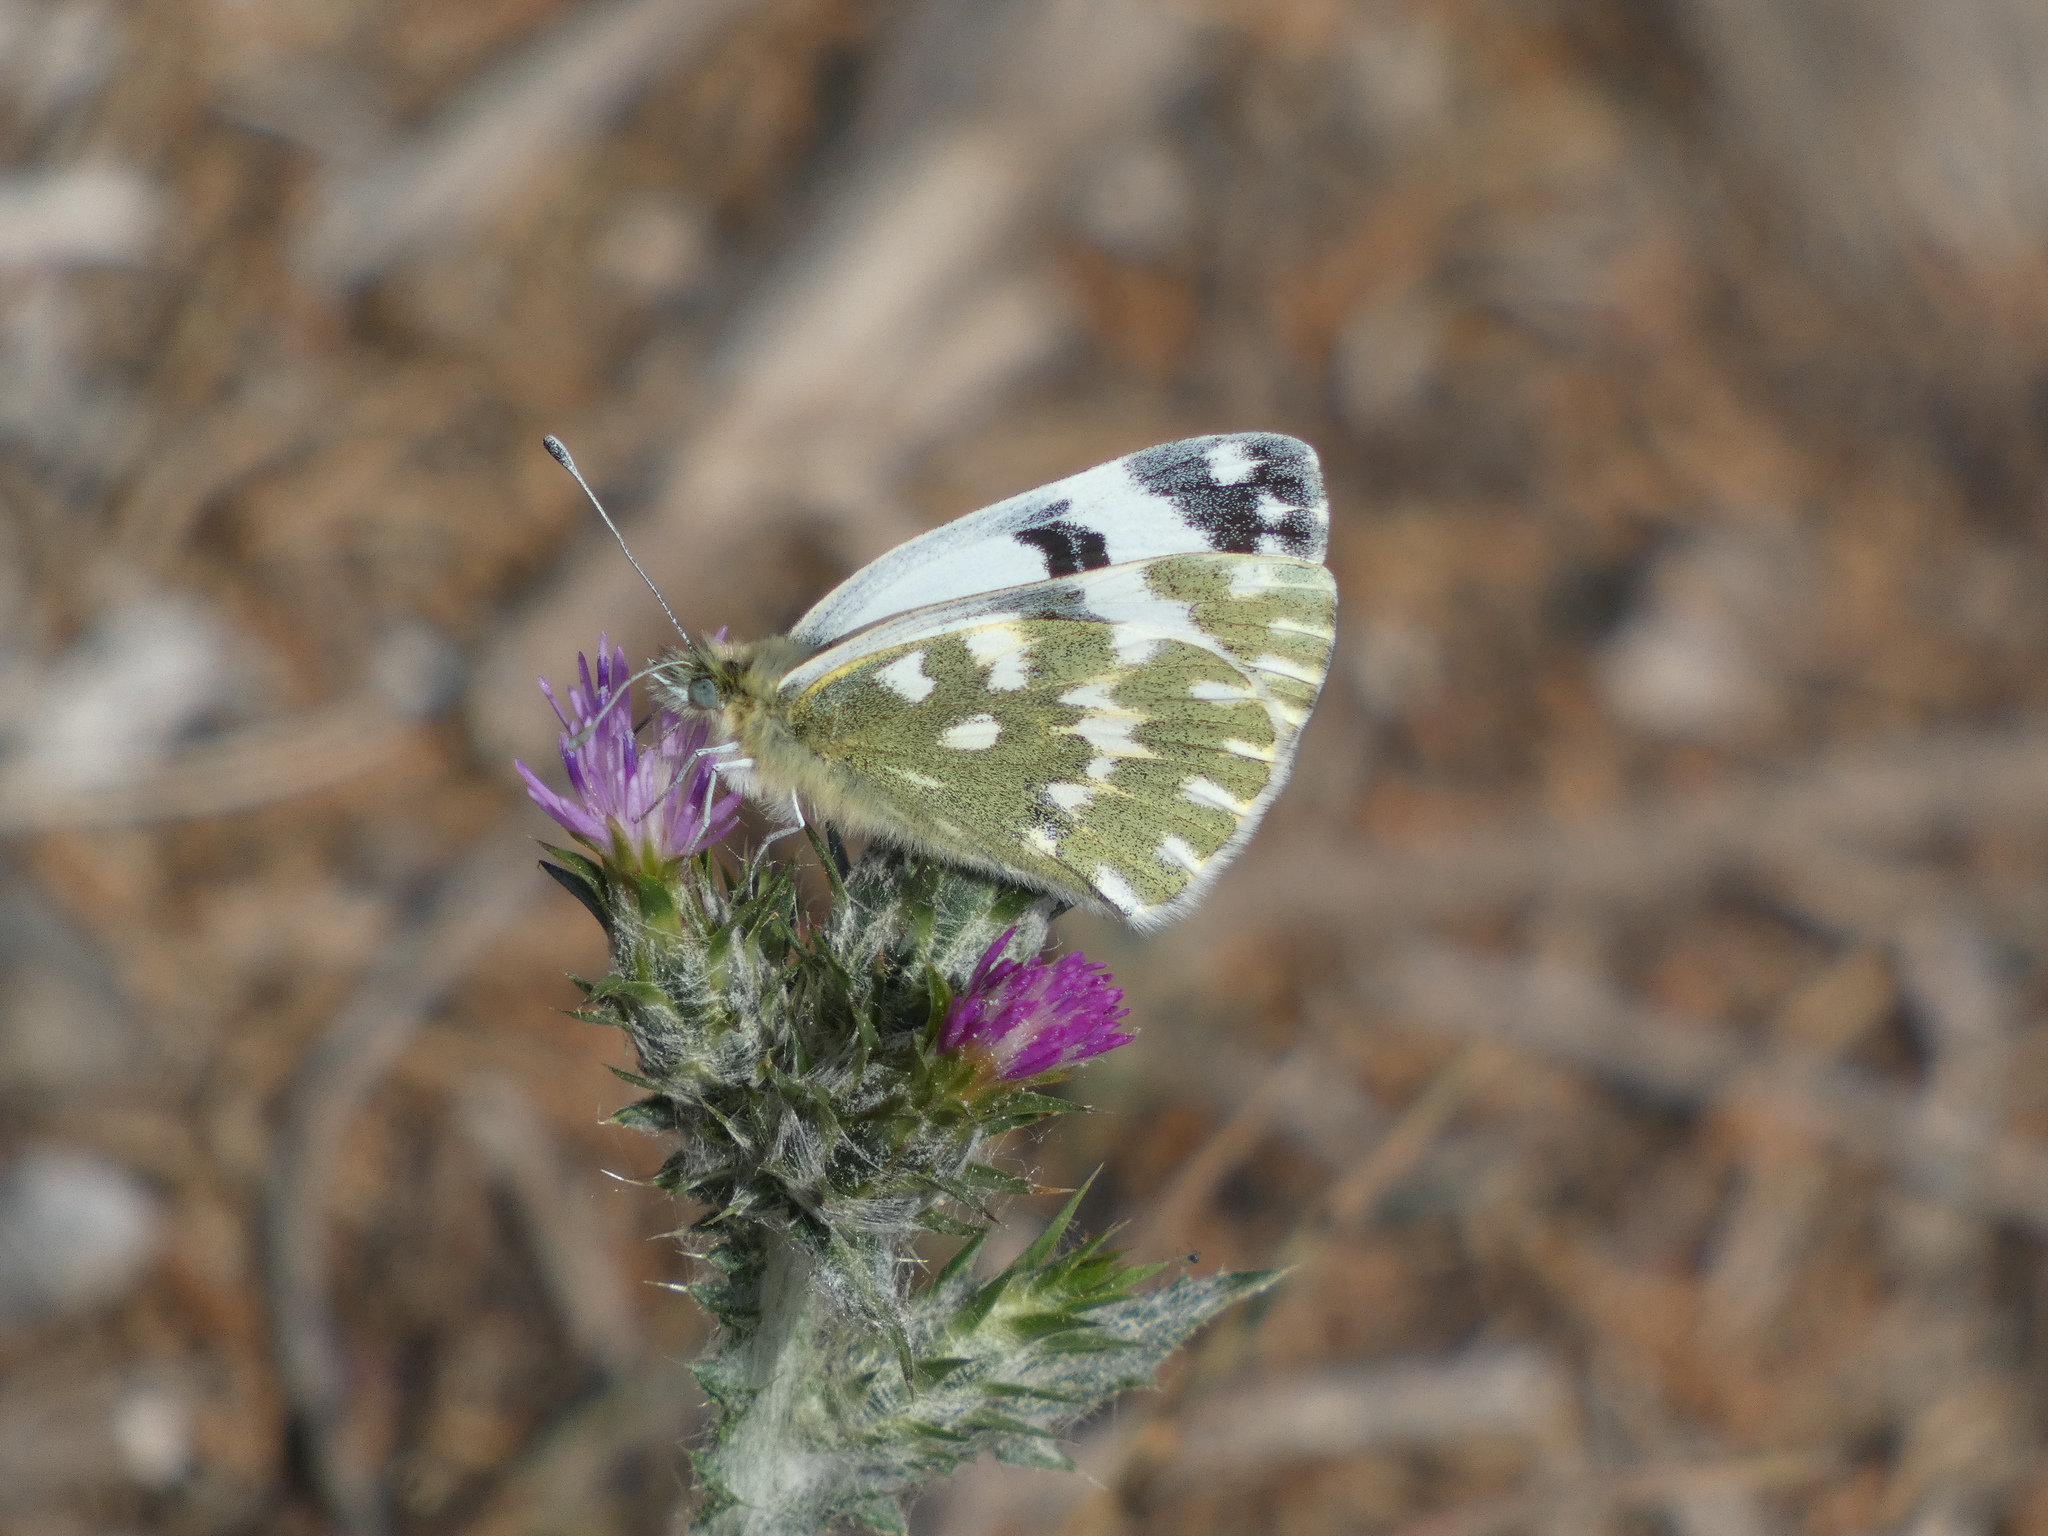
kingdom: Animalia
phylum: Arthropoda
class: Insecta
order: Lepidoptera
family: Pieridae
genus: Pontia
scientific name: Pontia daplidice
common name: Bath white
